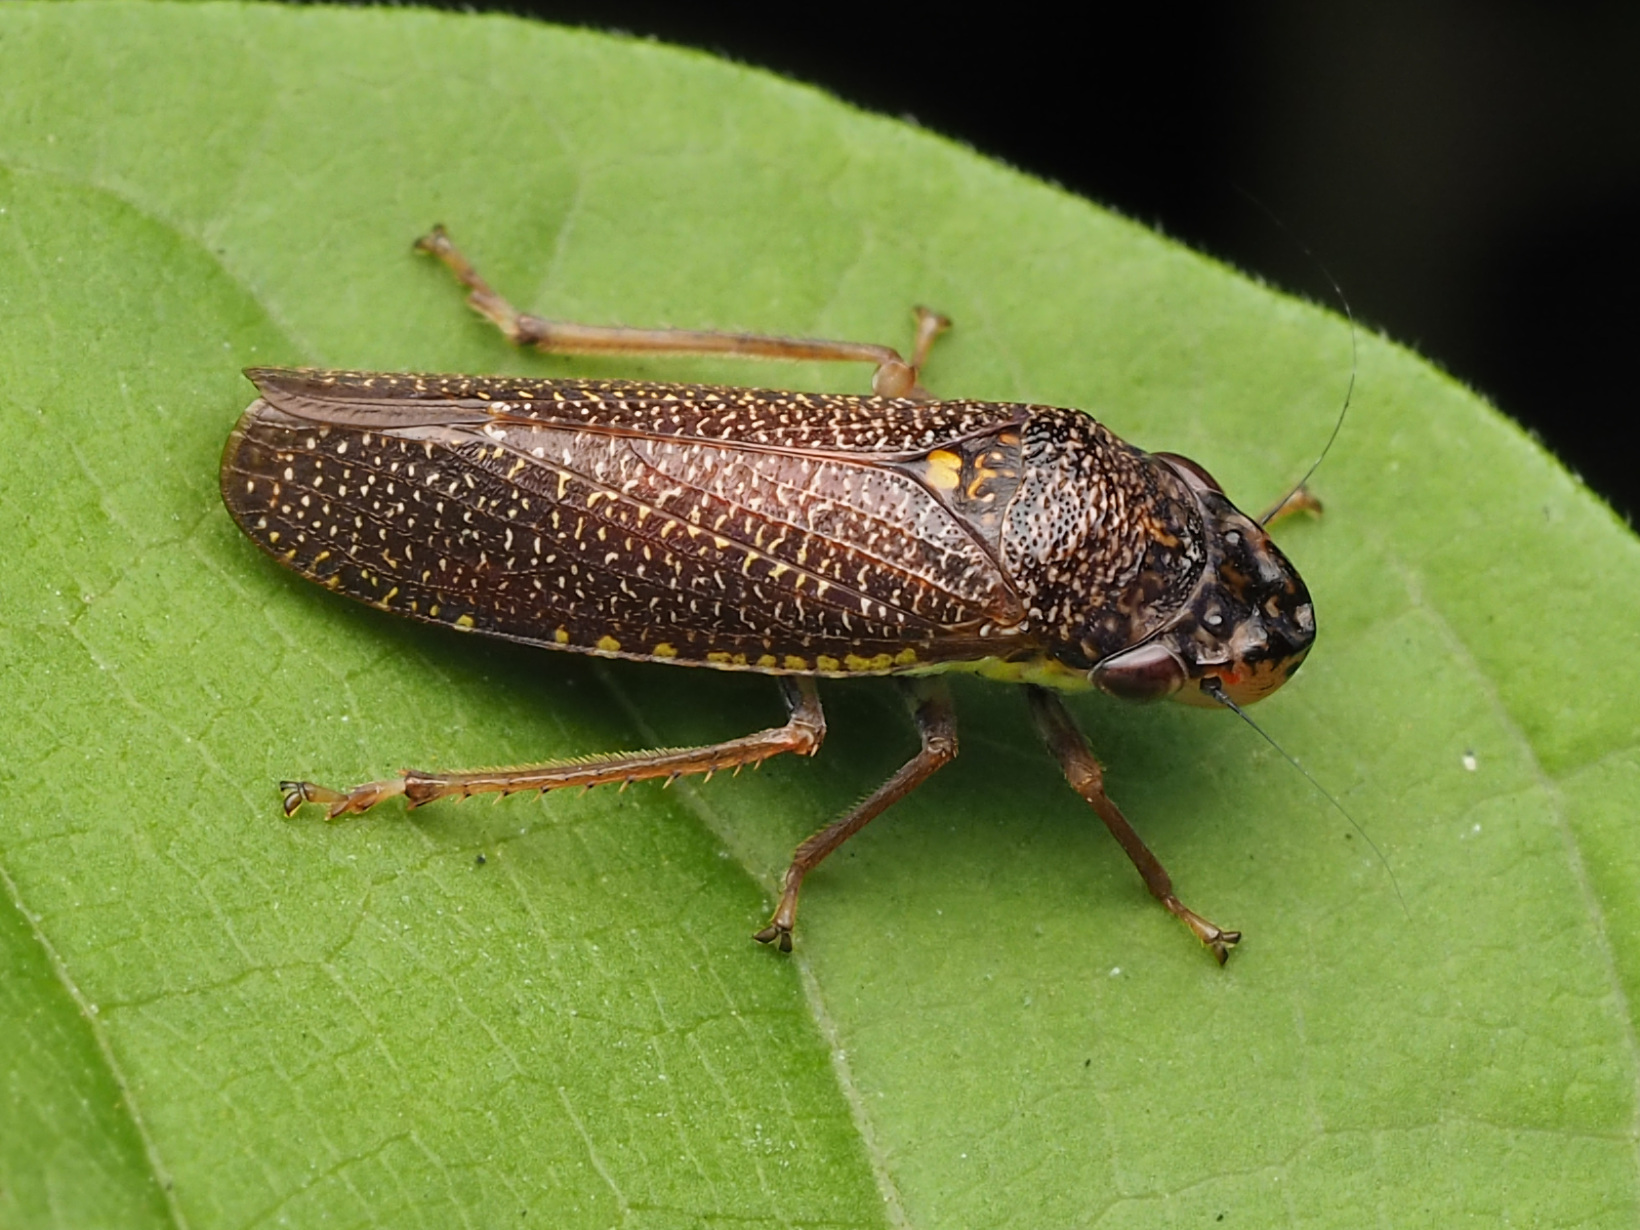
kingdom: Animalia
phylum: Arthropoda
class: Insecta
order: Hemiptera
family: Cicadellidae
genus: Paraulacizes
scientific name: Paraulacizes irrorata
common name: Speckled sharpshooter
